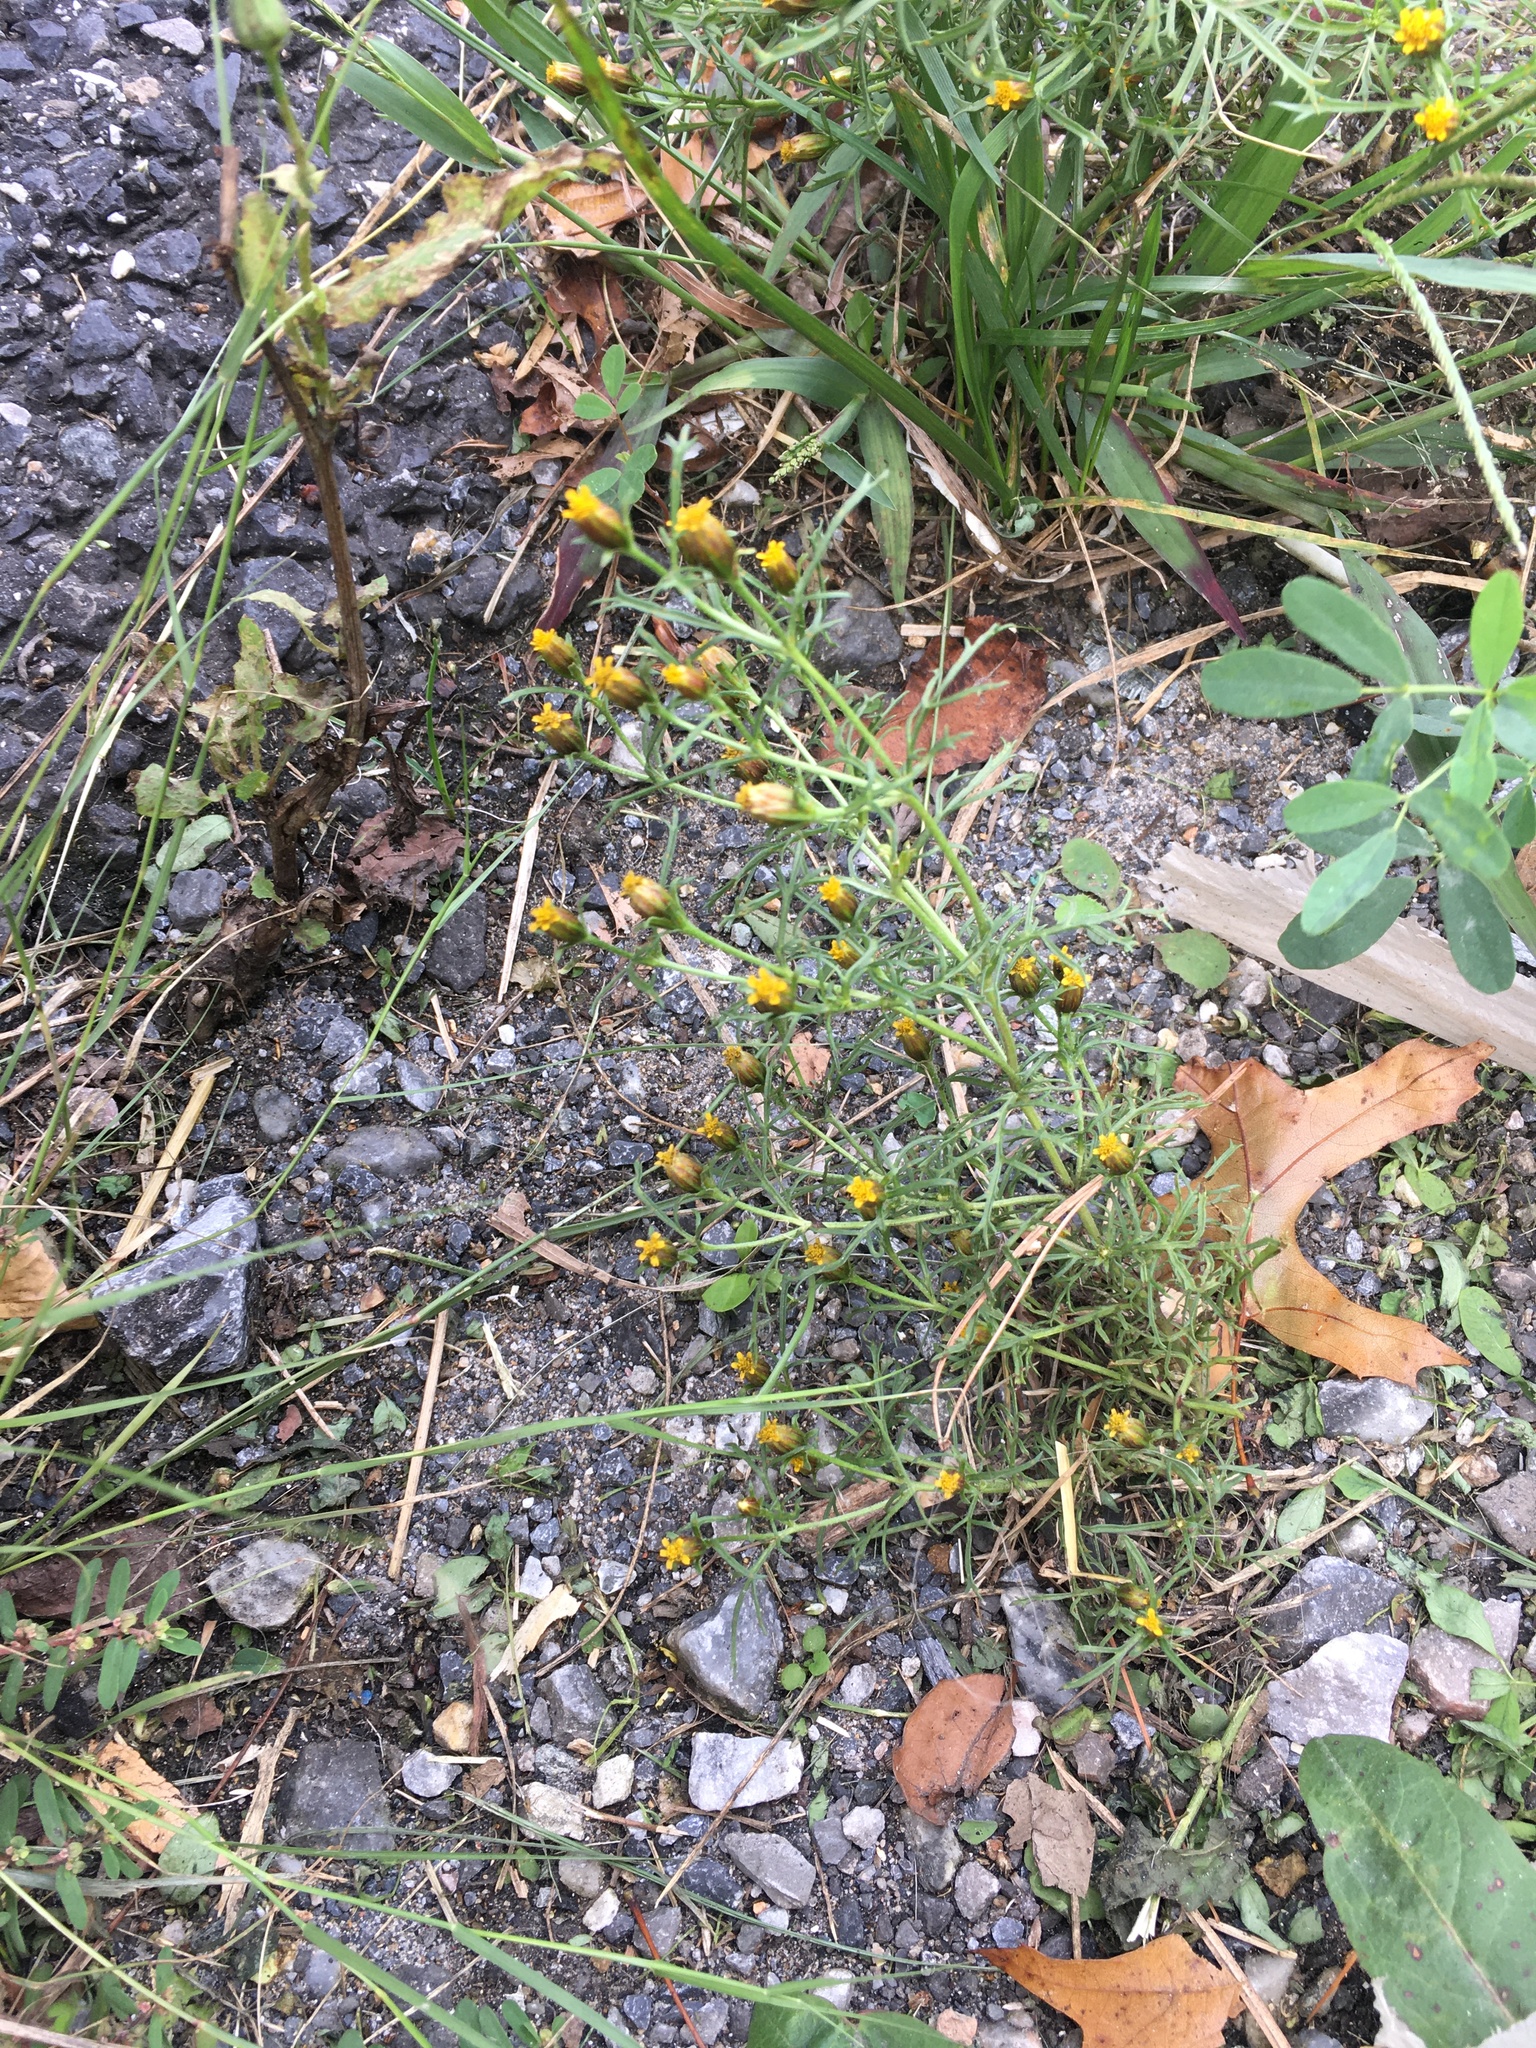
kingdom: Plantae
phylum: Tracheophyta
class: Magnoliopsida
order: Asterales
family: Asteraceae
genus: Dyssodia
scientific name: Dyssodia papposa
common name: Dogweed
